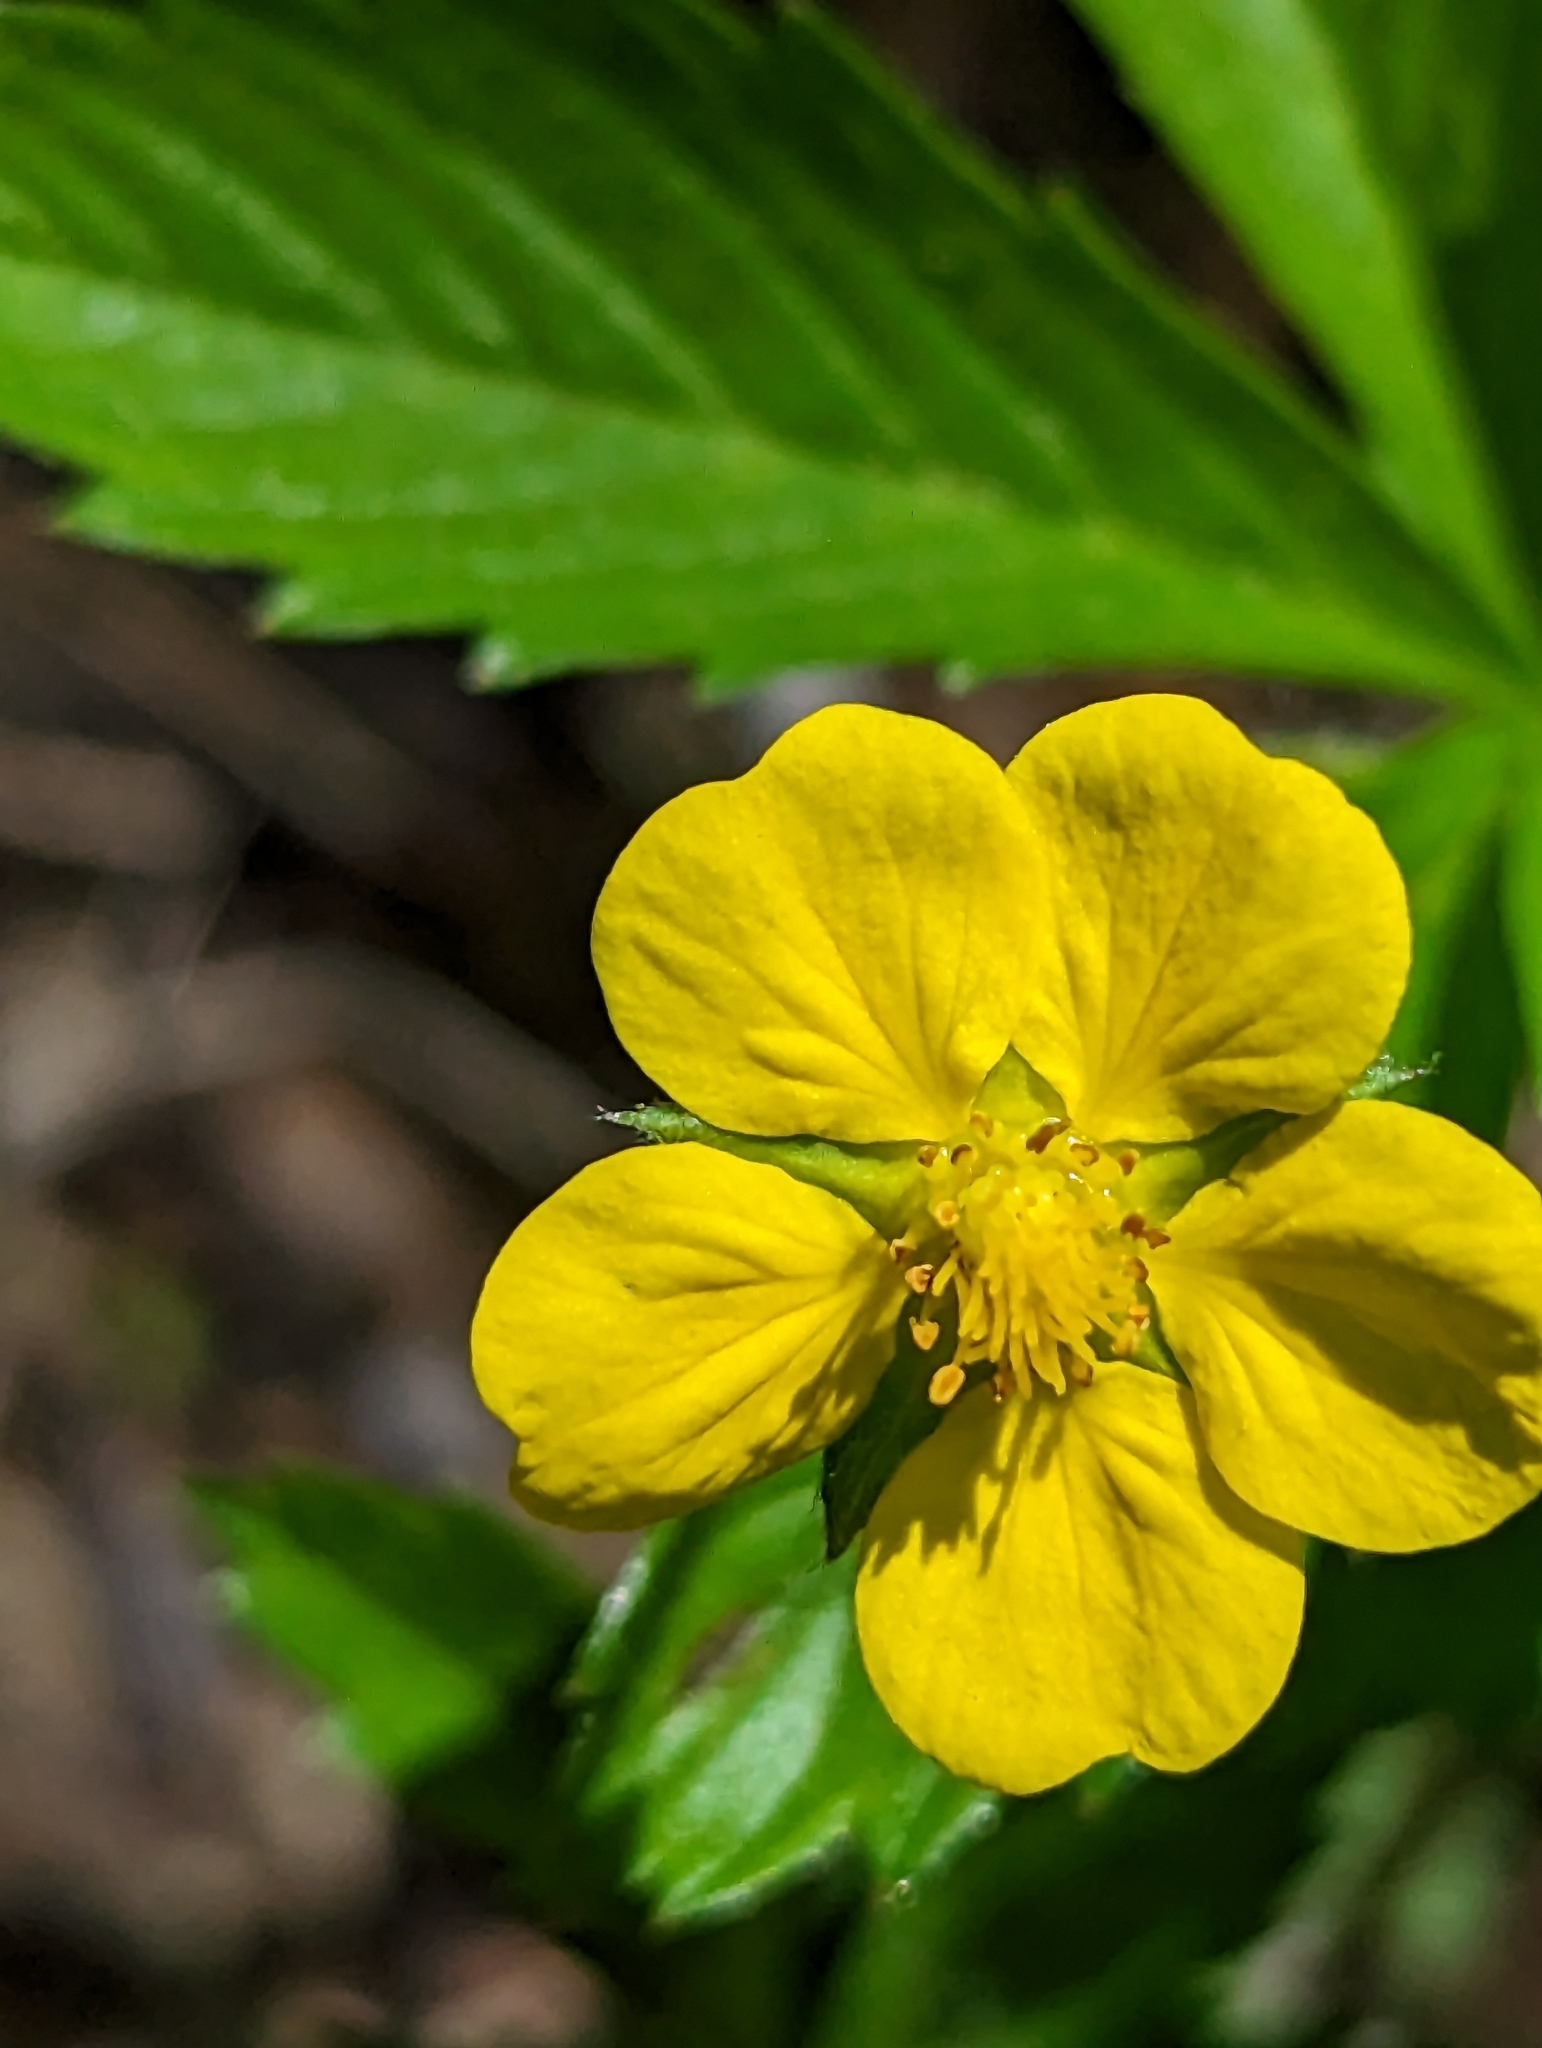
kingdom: Plantae
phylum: Tracheophyta
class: Magnoliopsida
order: Rosales
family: Rosaceae
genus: Potentilla
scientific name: Potentilla simplex
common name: Old field cinquefoil
